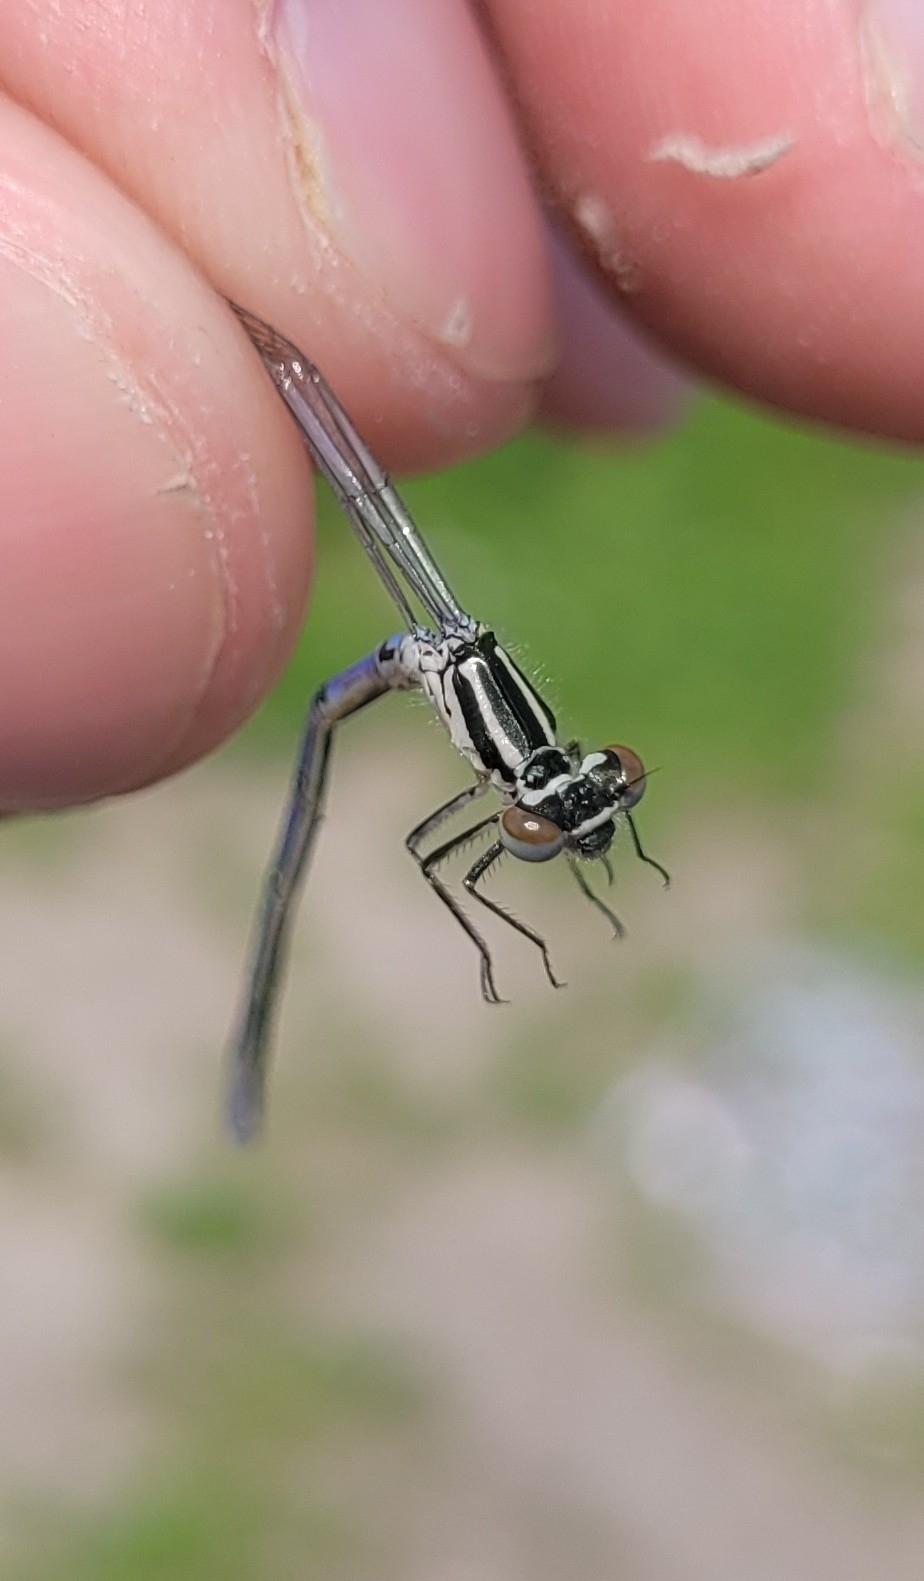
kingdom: Animalia
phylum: Arthropoda
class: Insecta
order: Odonata
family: Coenagrionidae
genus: Coenagrion
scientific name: Coenagrion puella
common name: Azure damselfly
